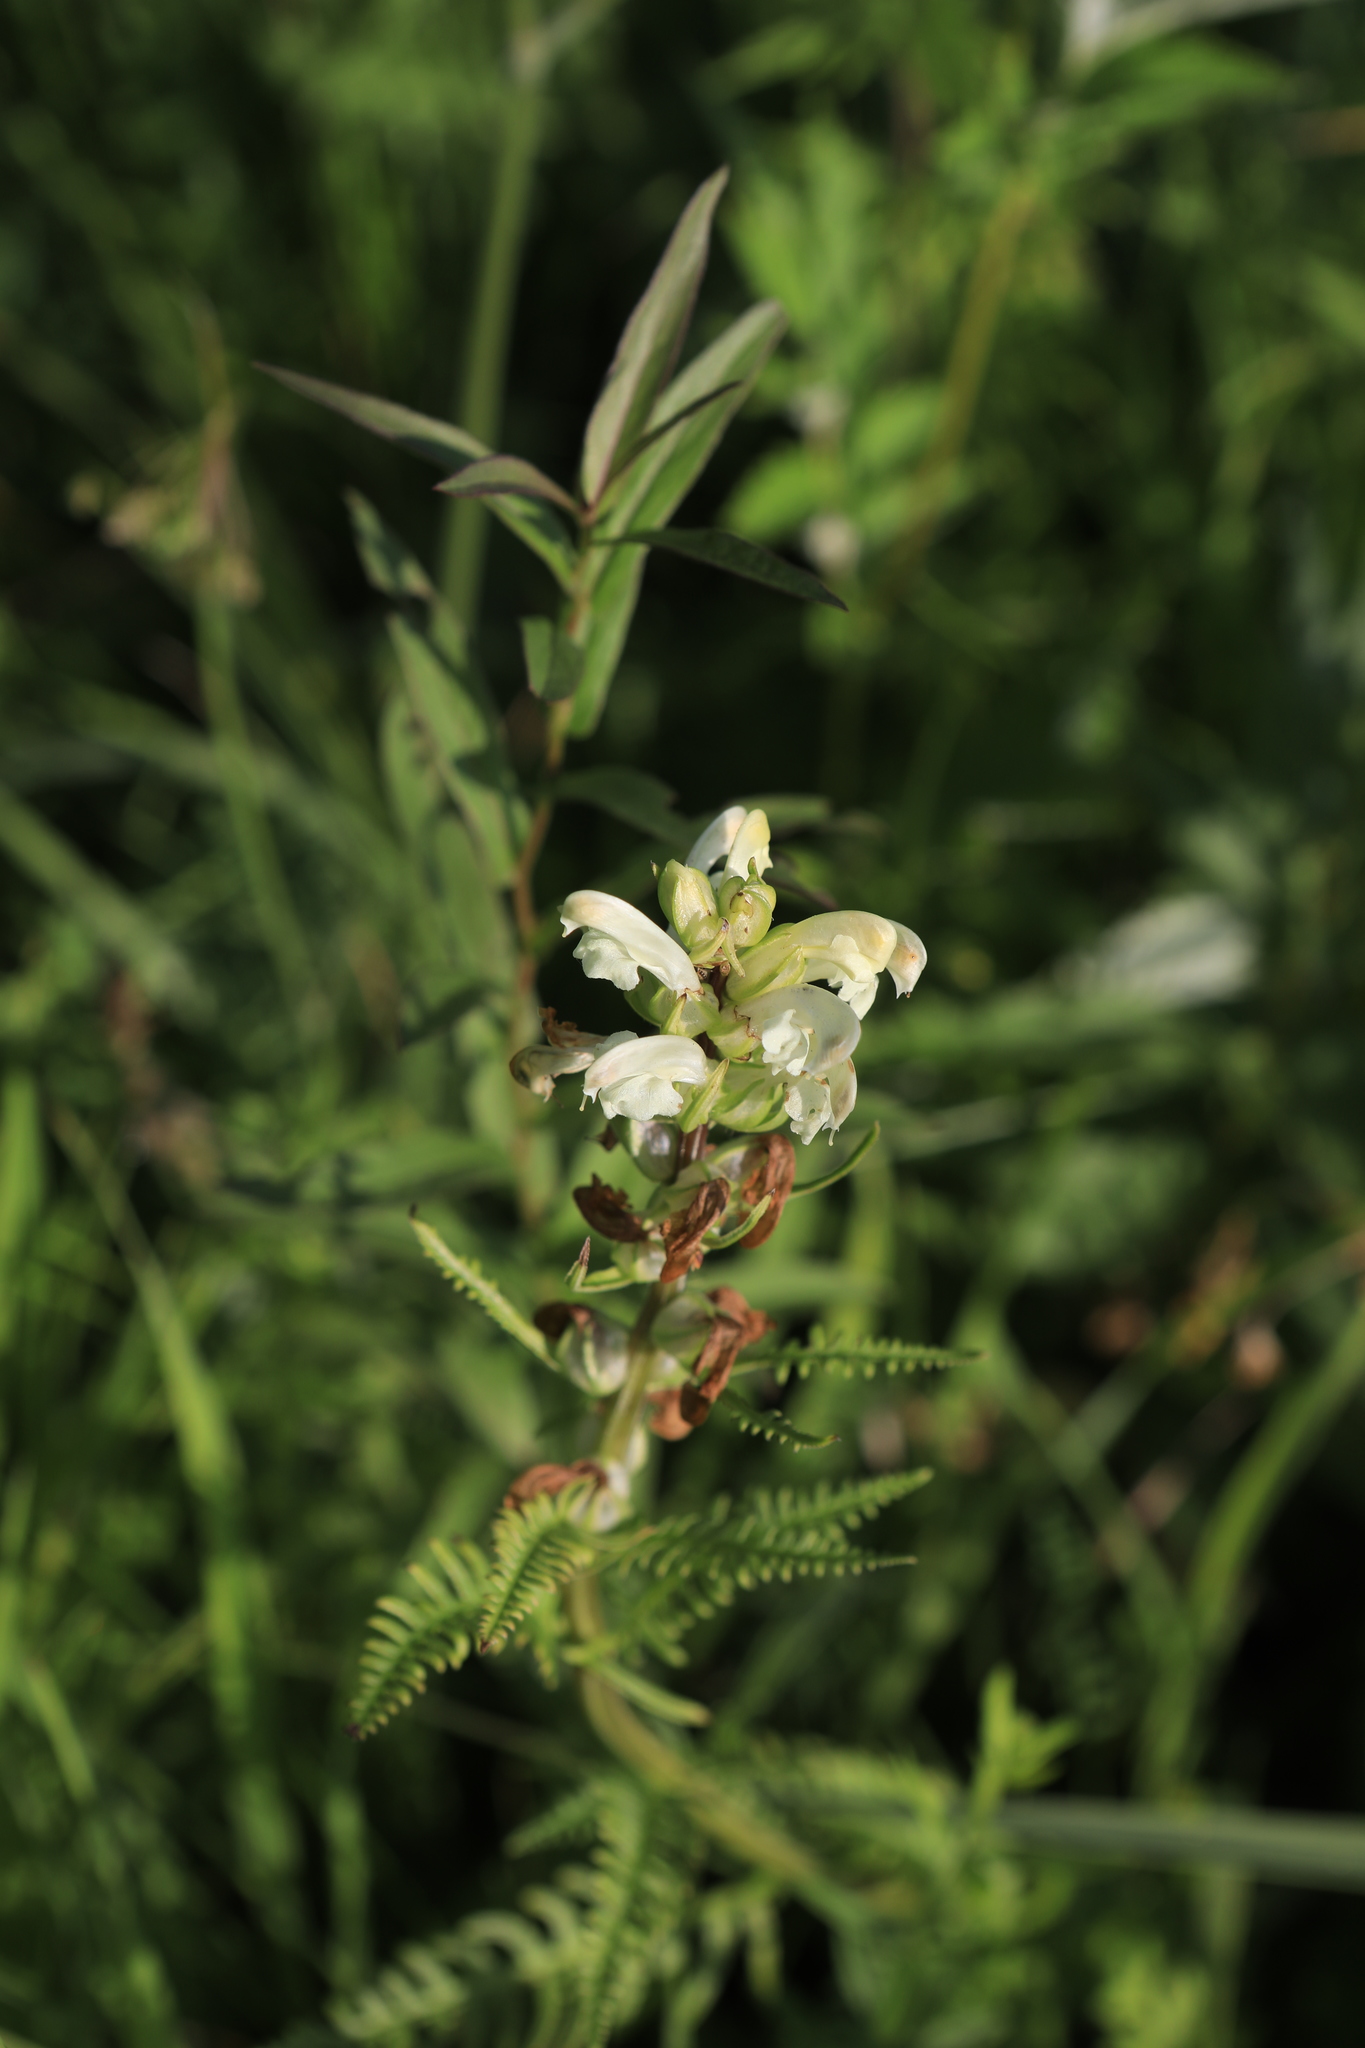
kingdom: Plantae
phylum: Tracheophyta
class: Magnoliopsida
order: Lamiales
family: Orobanchaceae
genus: Pedicularis
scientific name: Pedicularis sibirica
